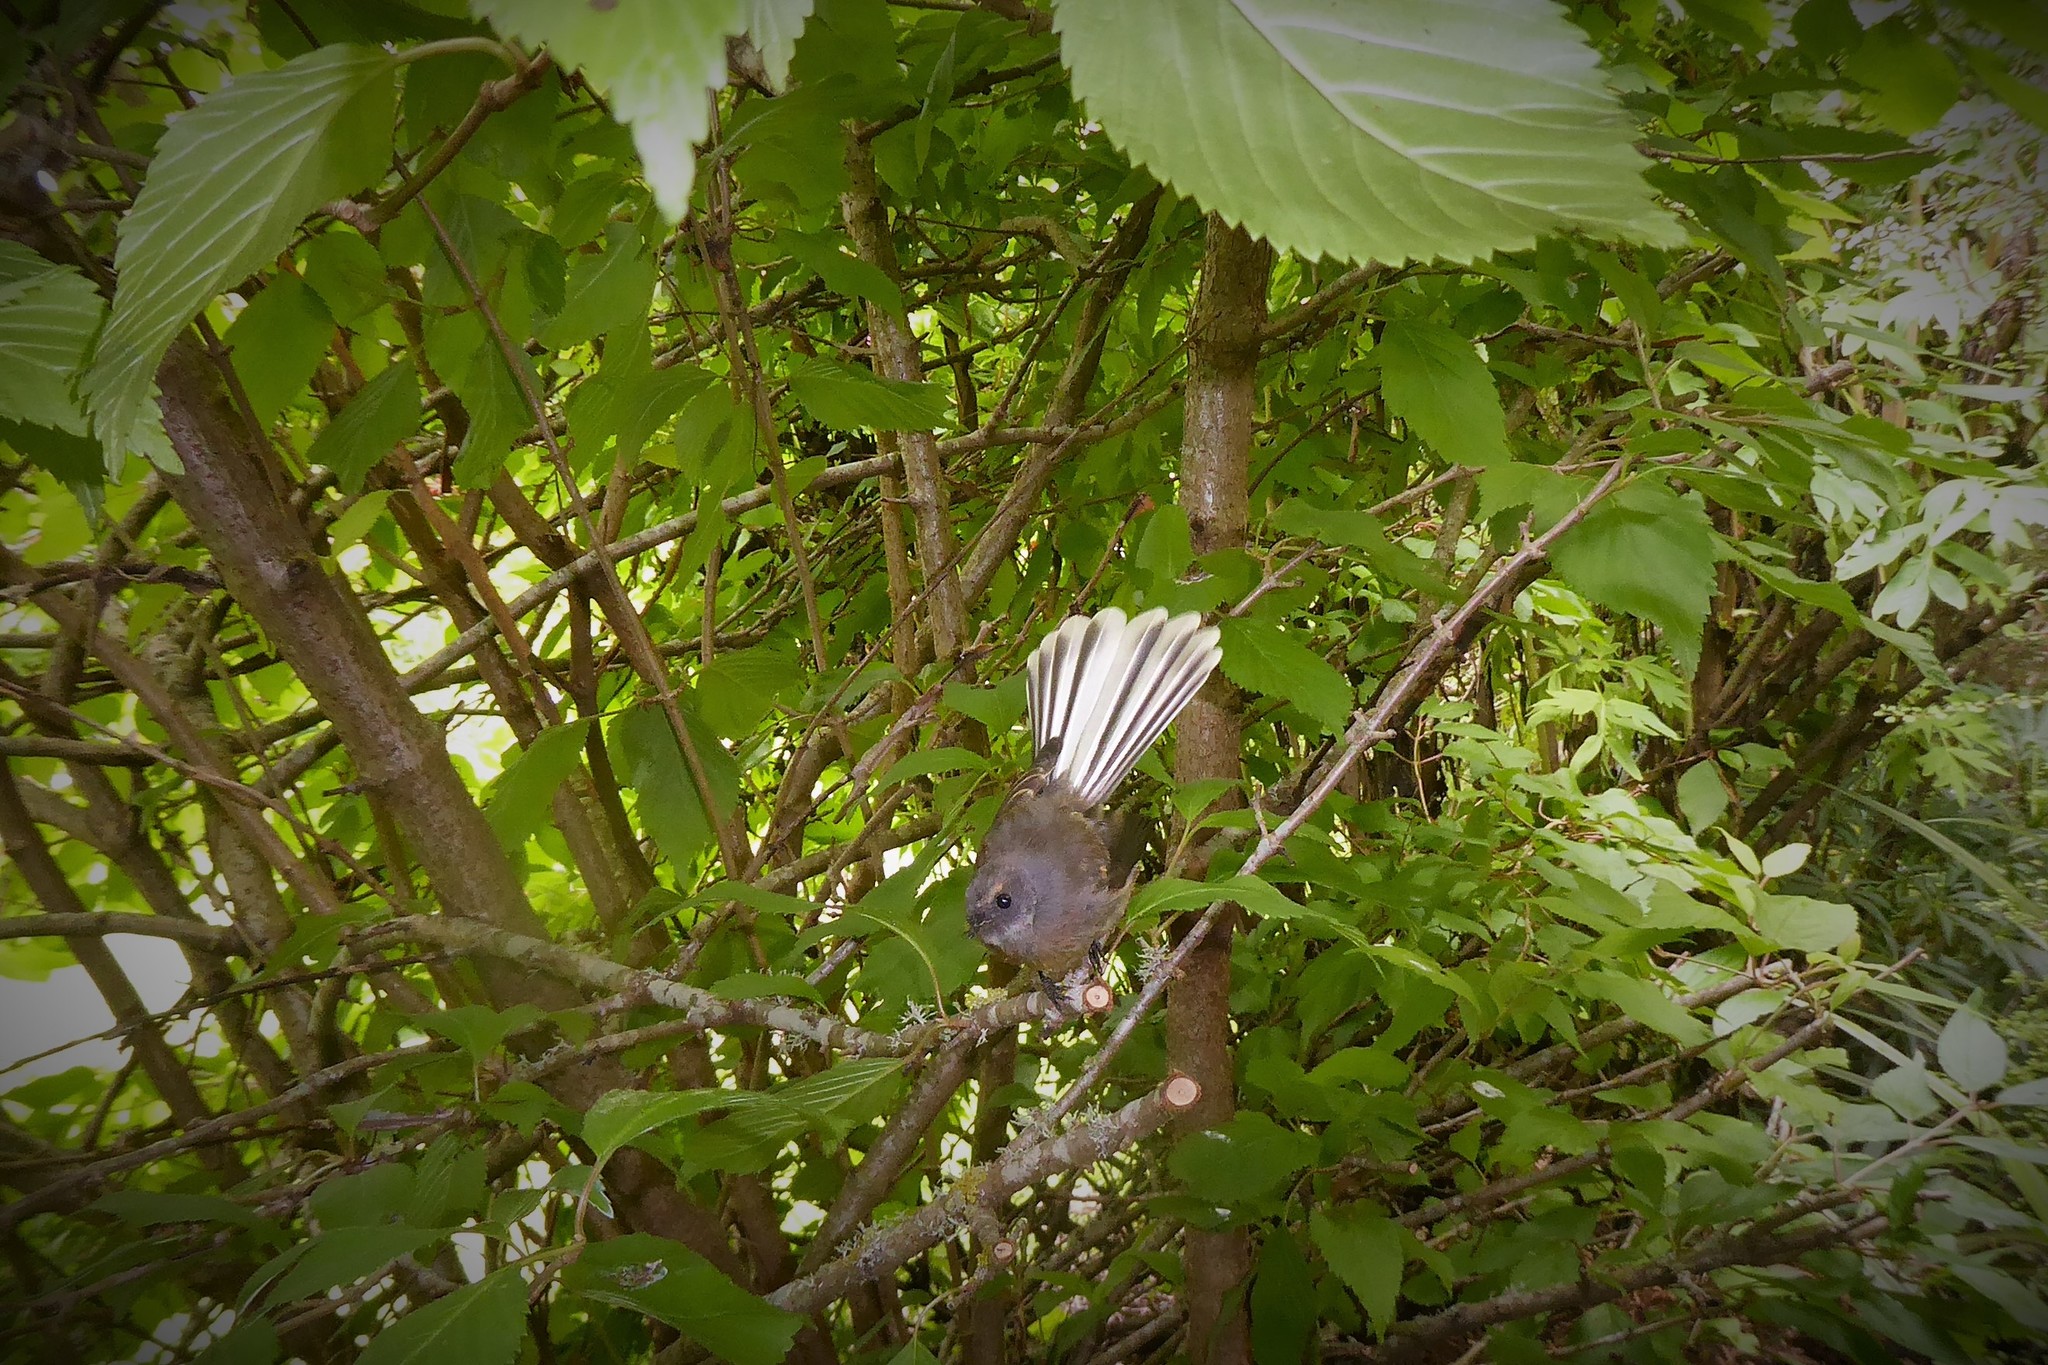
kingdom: Animalia
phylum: Chordata
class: Aves
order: Passeriformes
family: Rhipiduridae
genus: Rhipidura
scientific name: Rhipidura fuliginosa
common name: New zealand fantail
